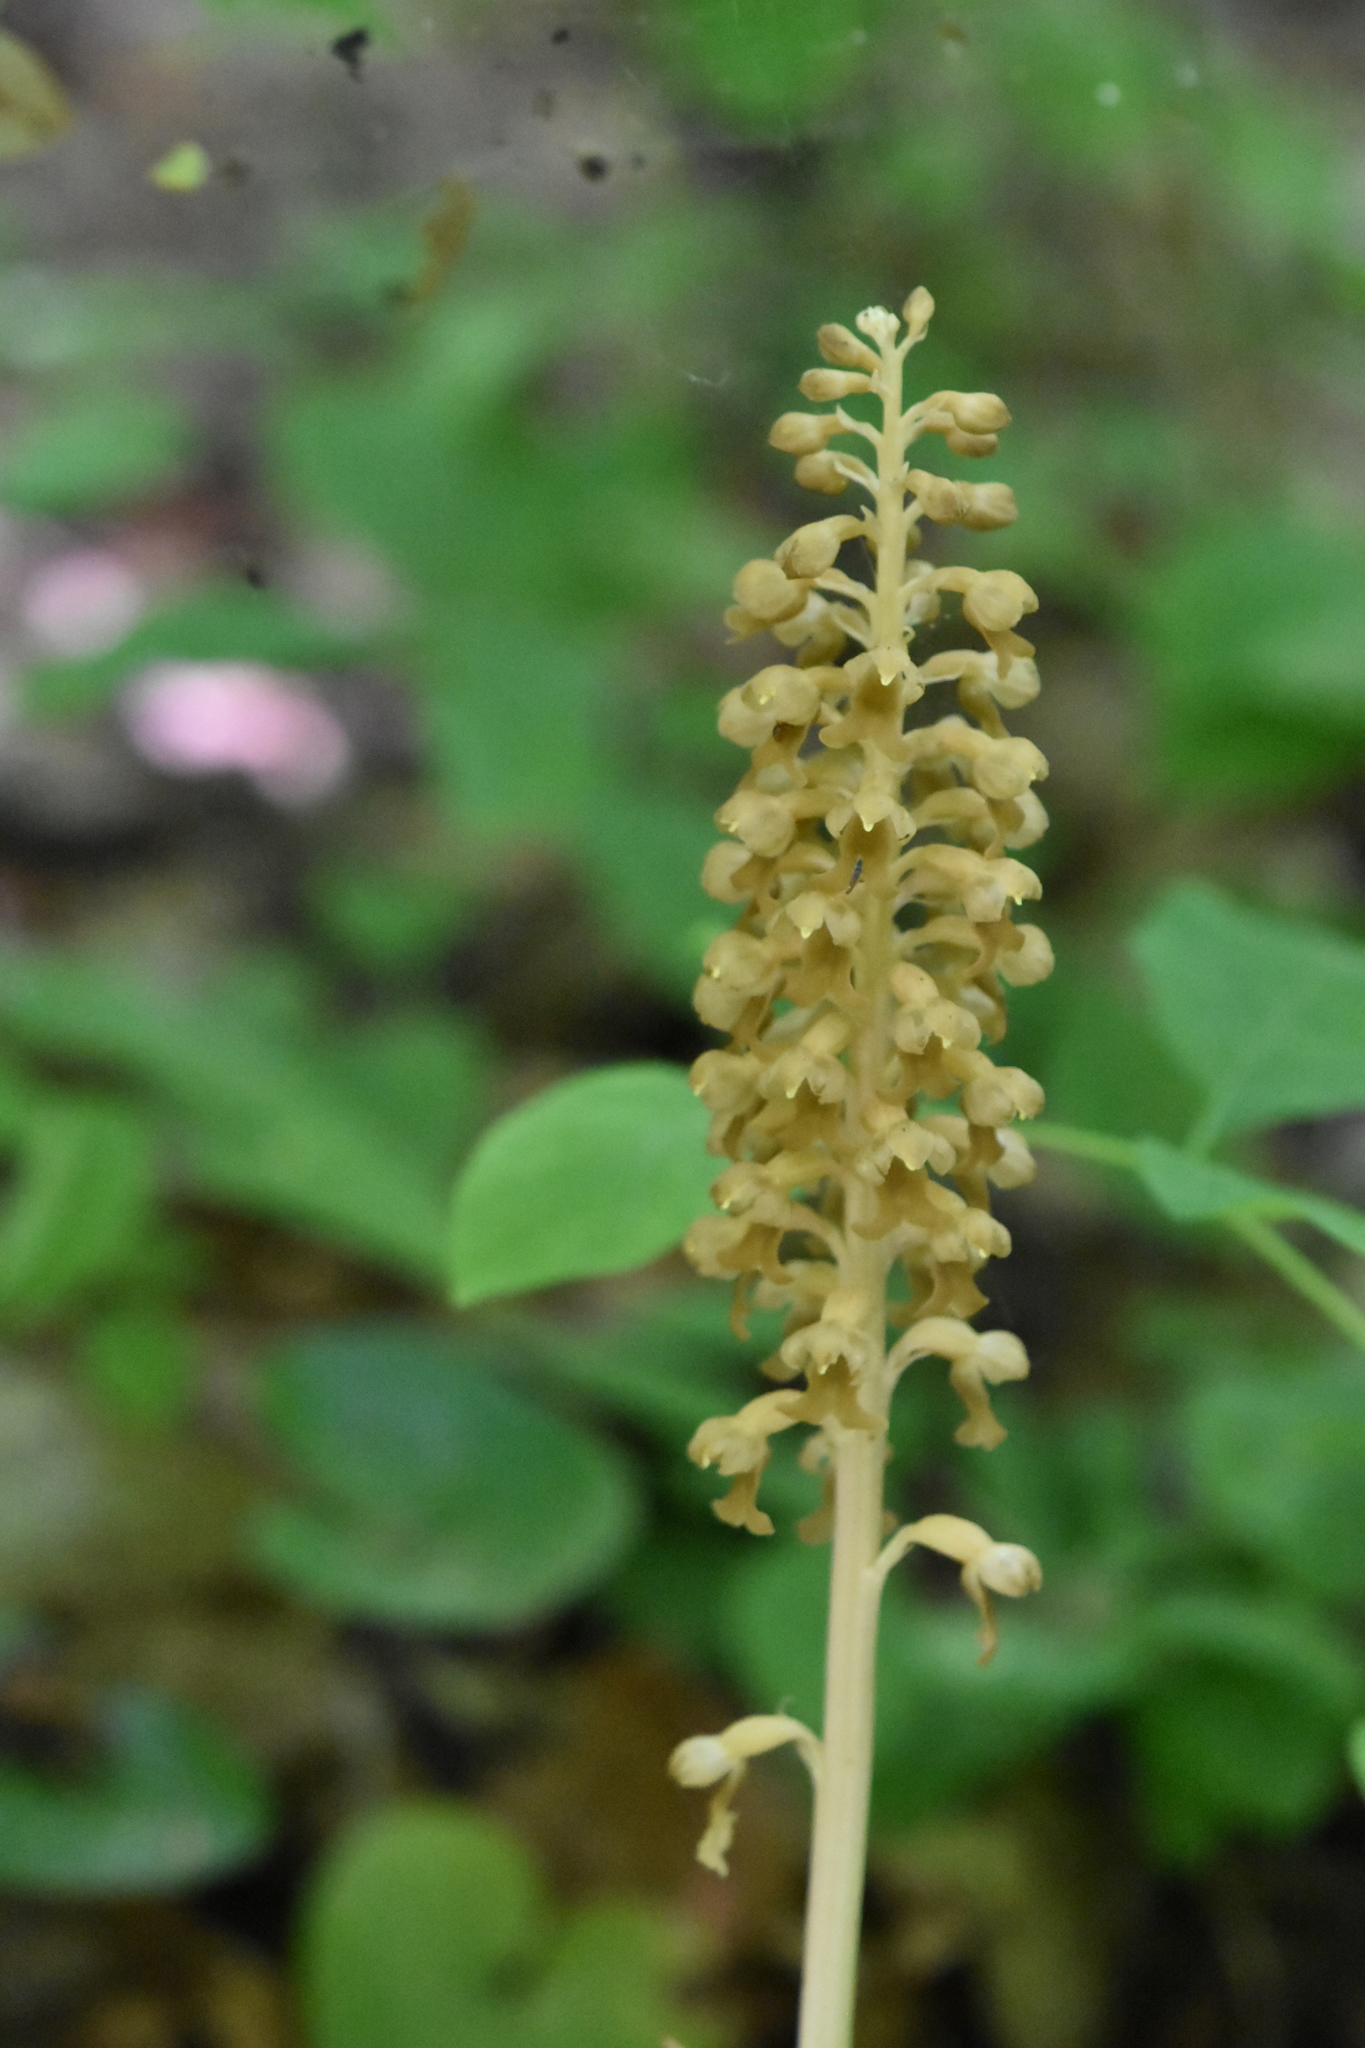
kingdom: Plantae
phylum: Tracheophyta
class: Liliopsida
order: Asparagales
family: Orchidaceae
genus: Neottia
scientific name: Neottia nidus-avis
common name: Bird's-nest orchid
